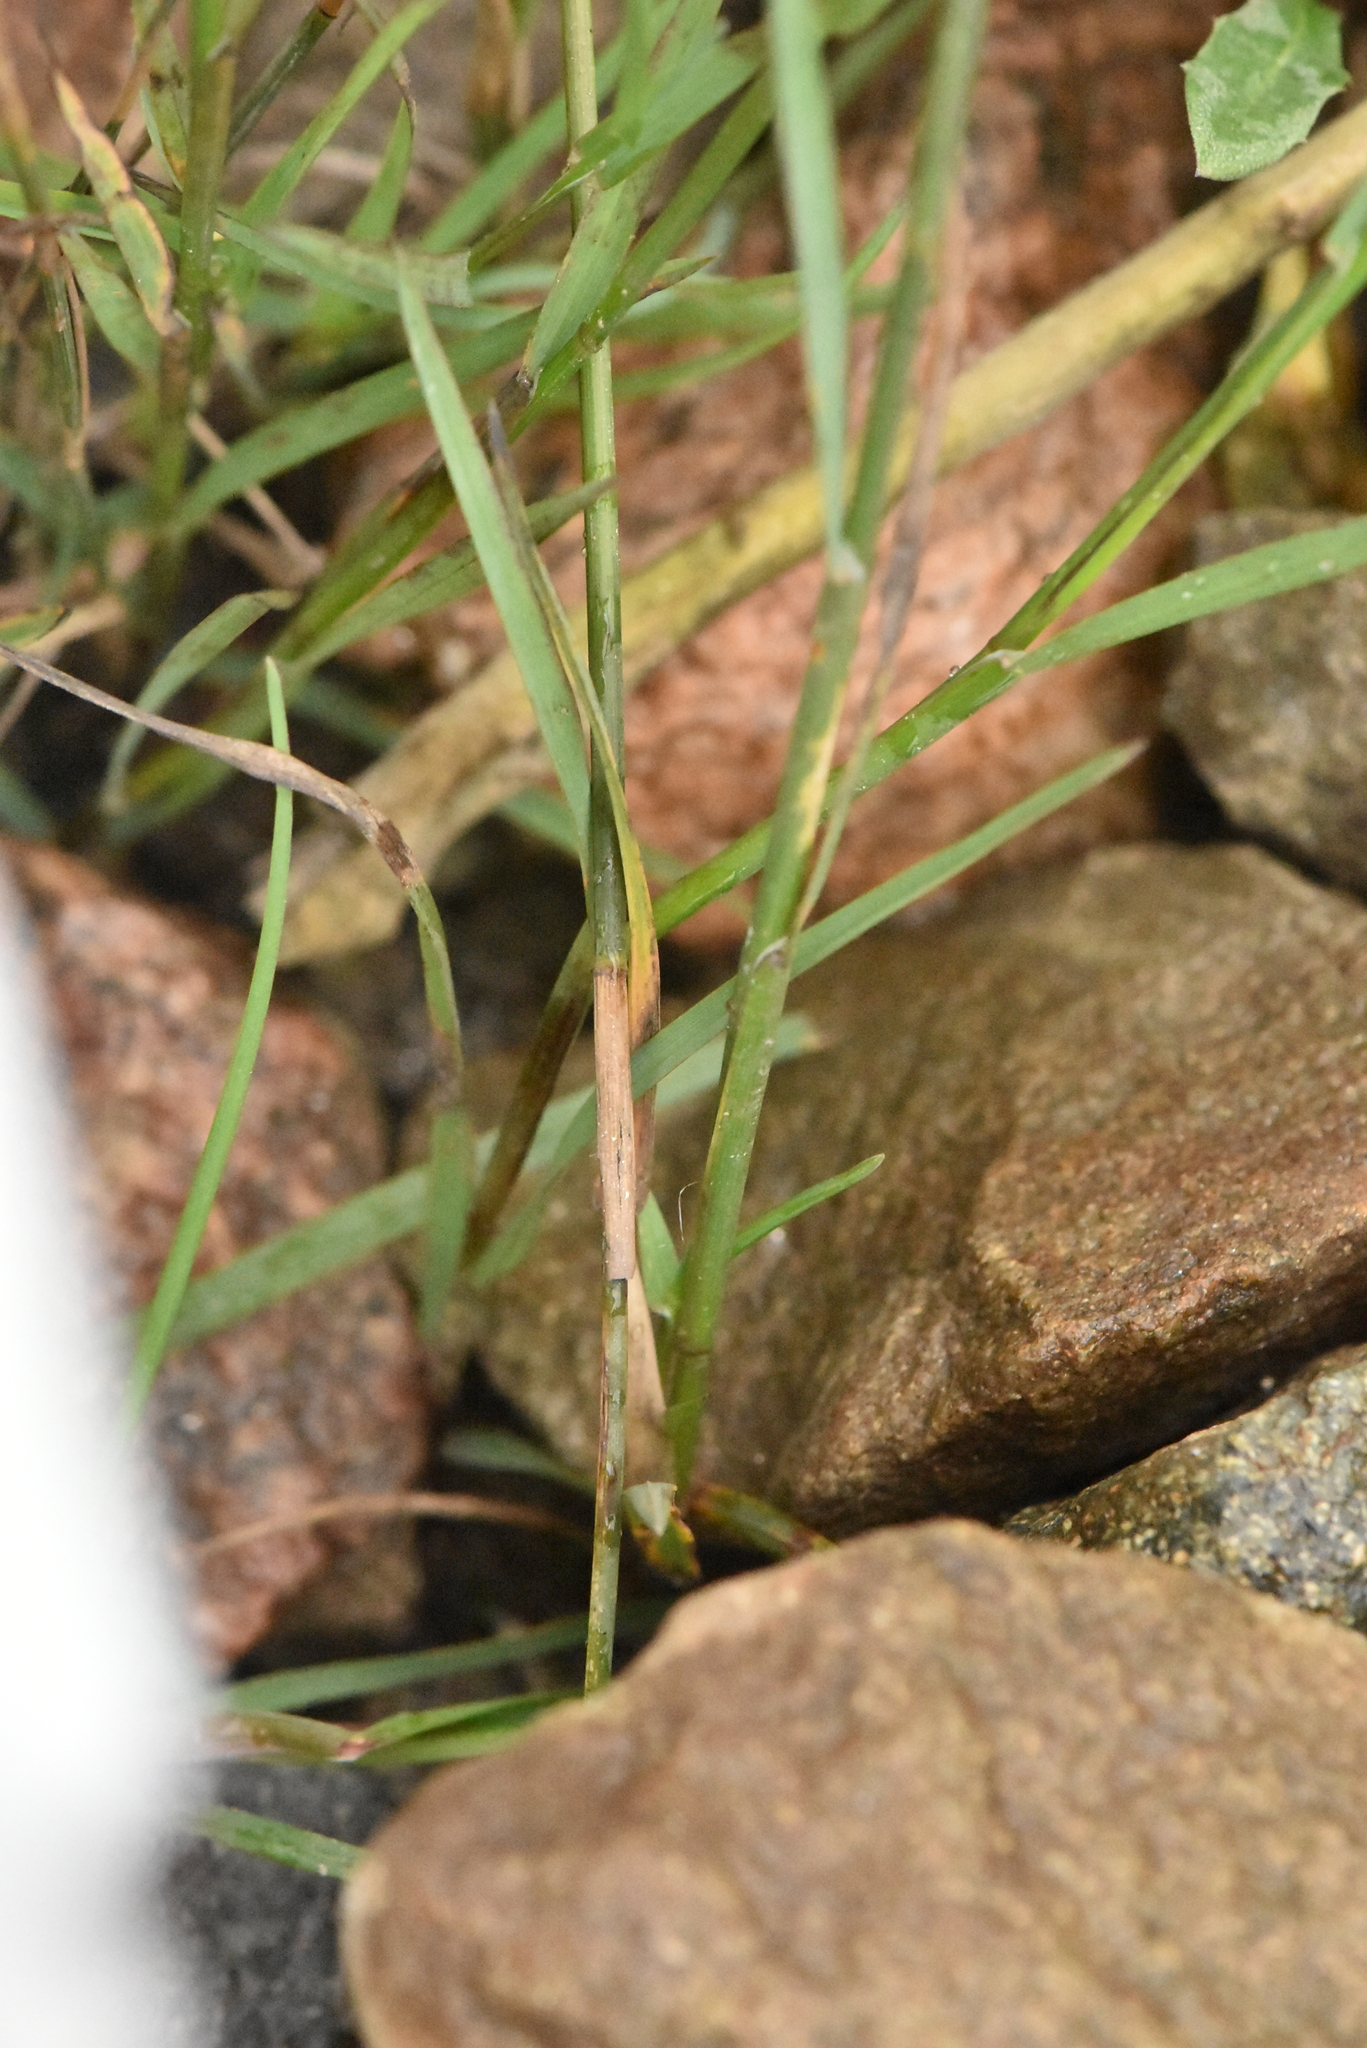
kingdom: Plantae
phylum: Tracheophyta
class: Liliopsida
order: Poales
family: Poaceae
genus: Poa
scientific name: Poa compressa
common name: Canada bluegrass
